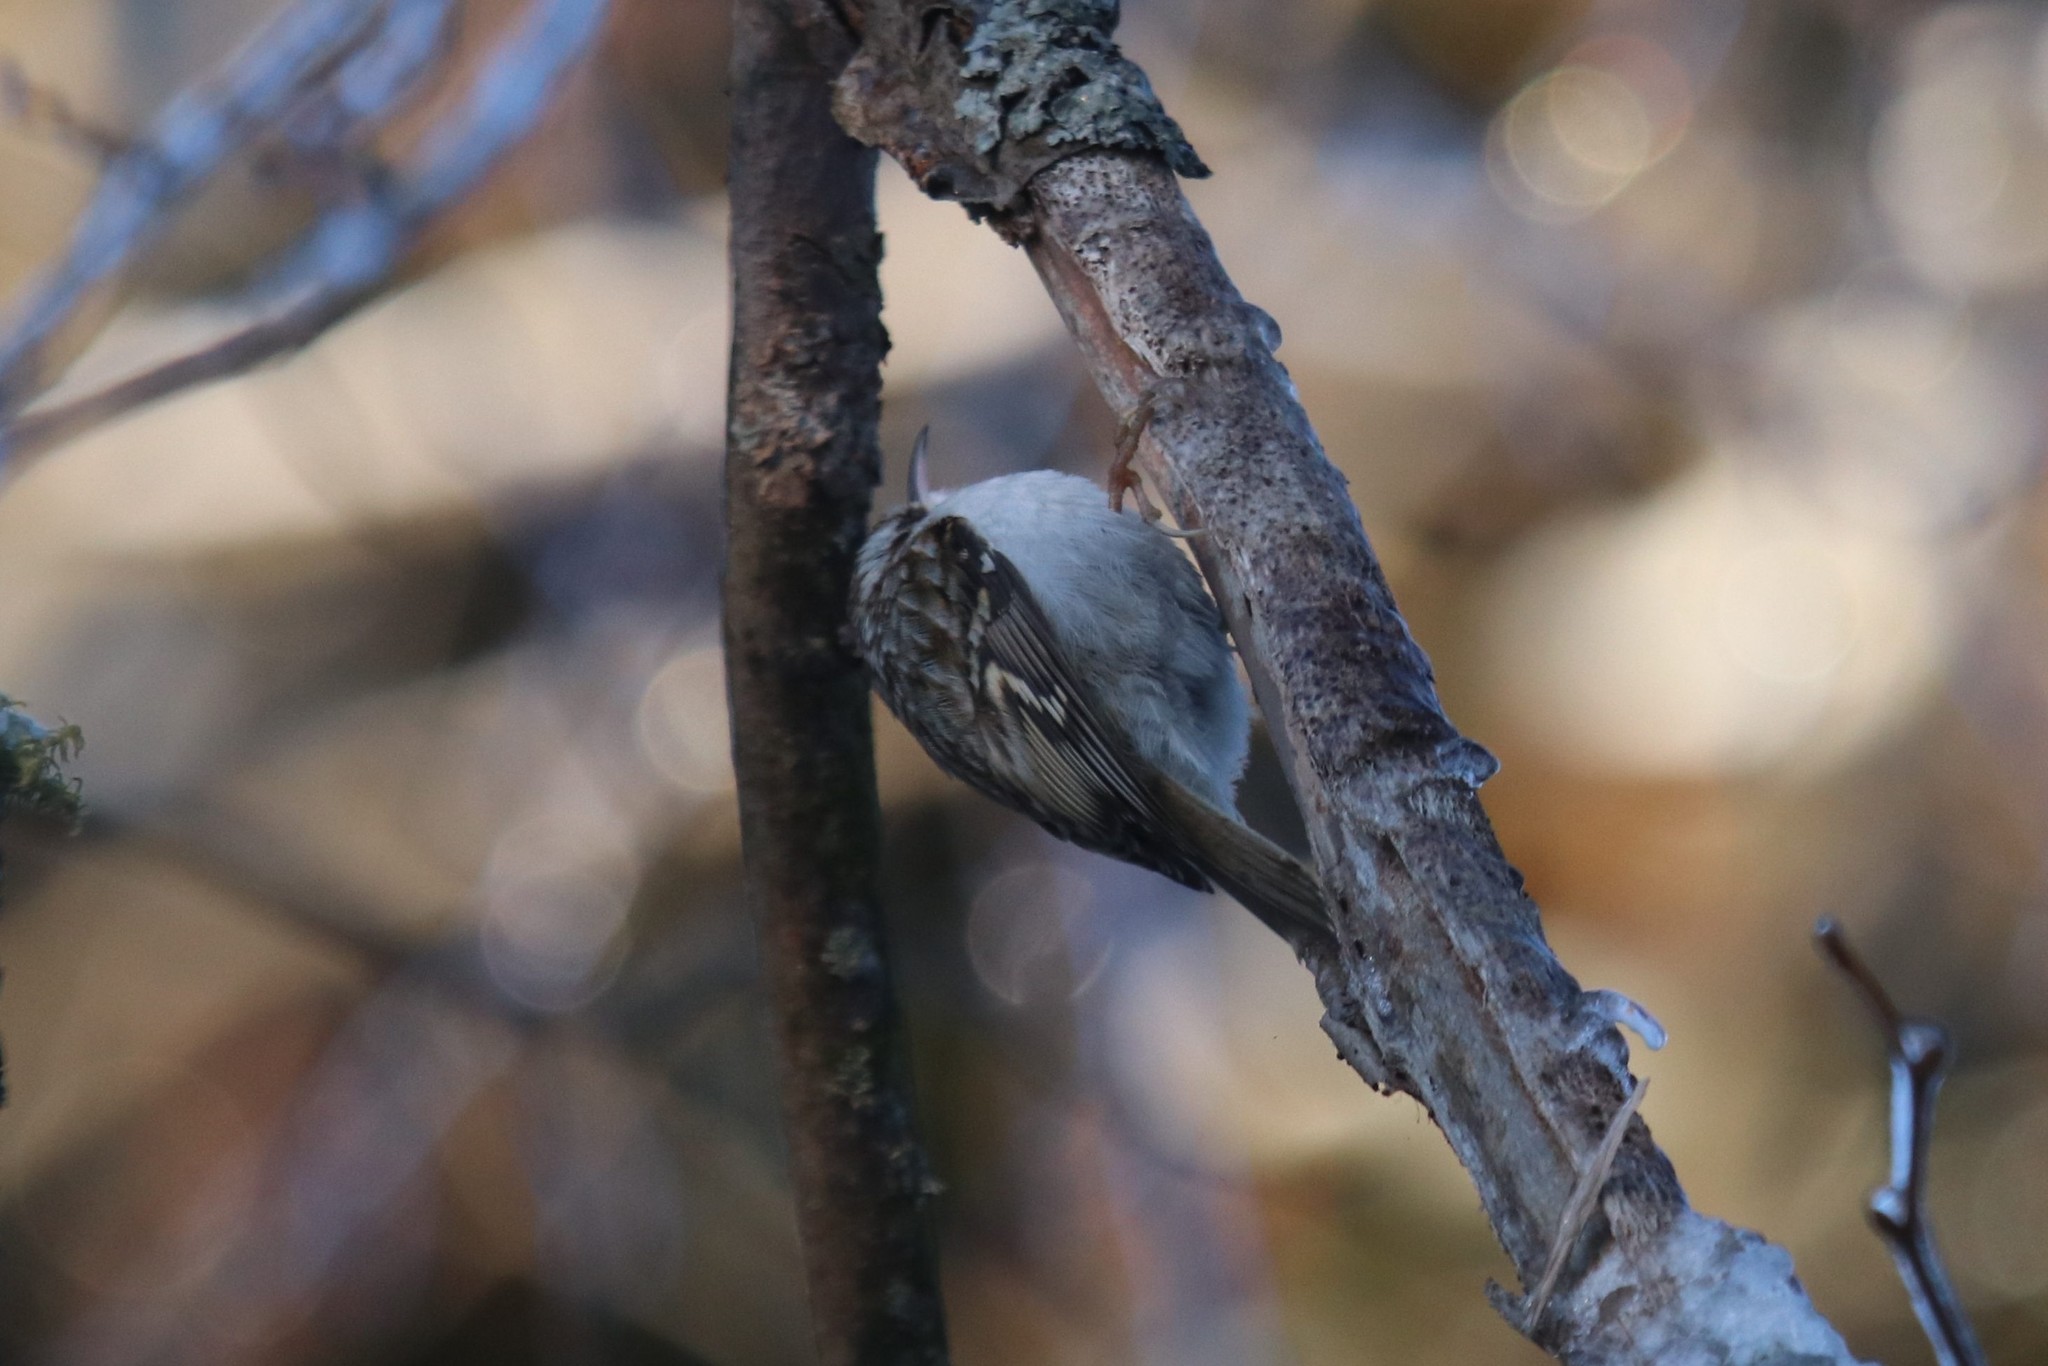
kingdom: Animalia
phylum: Chordata
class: Aves
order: Passeriformes
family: Certhiidae
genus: Certhia
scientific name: Certhia familiaris
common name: Eurasian treecreeper
